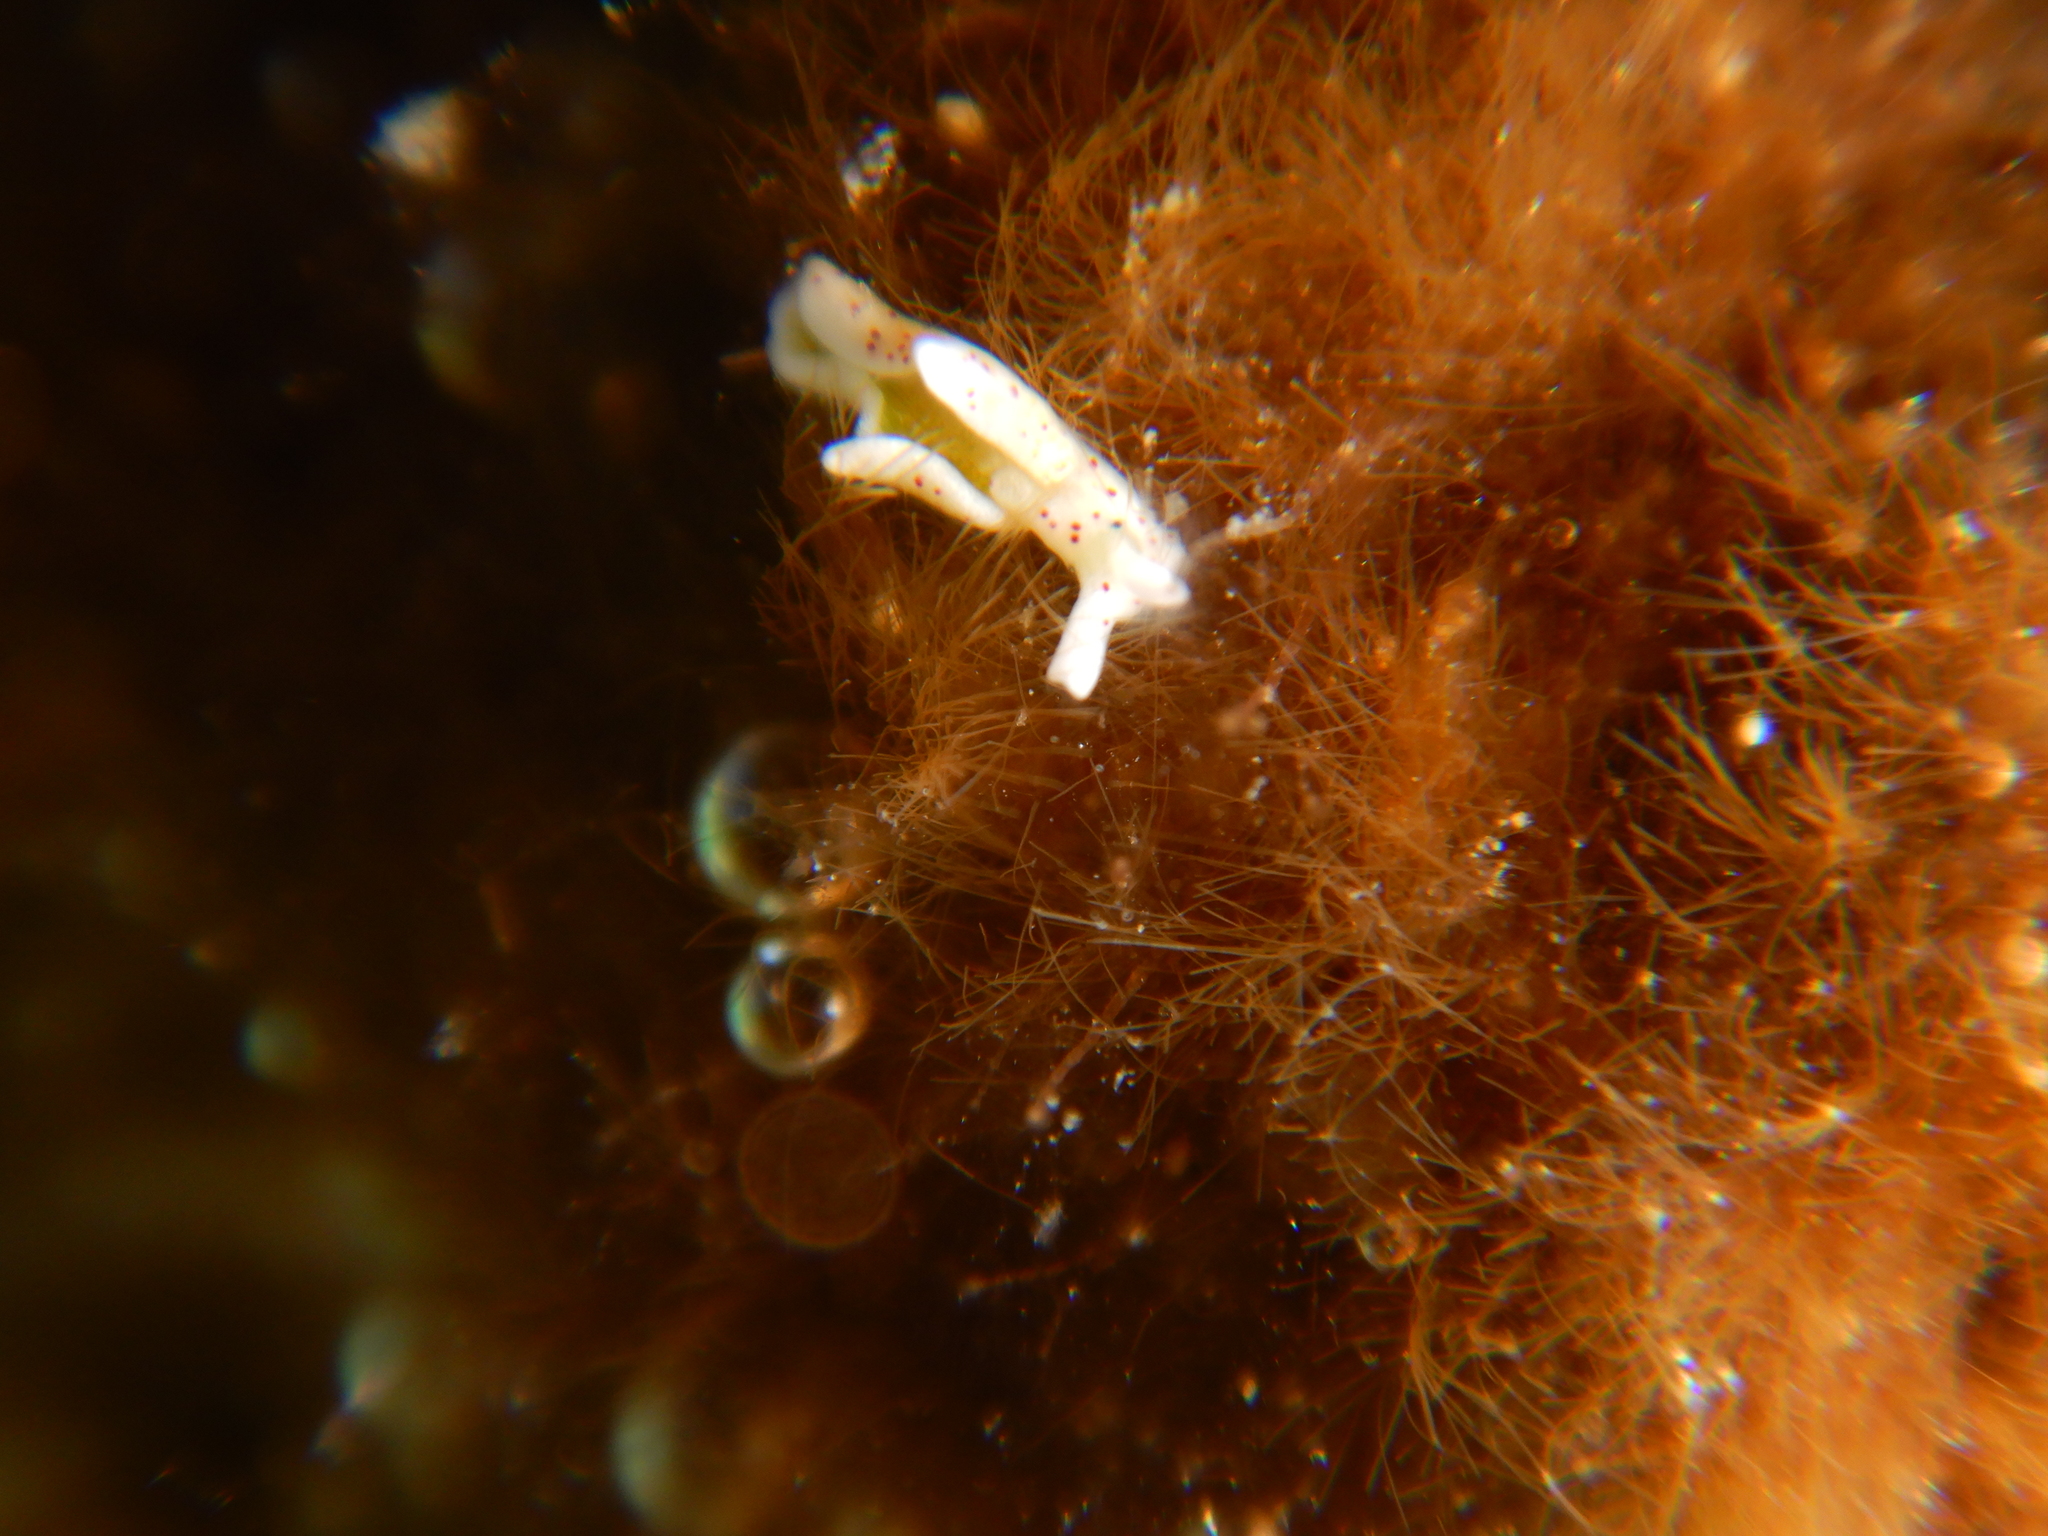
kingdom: Animalia
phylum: Mollusca
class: Gastropoda
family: Plakobranchidae
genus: Elysia
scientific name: Elysia timida
